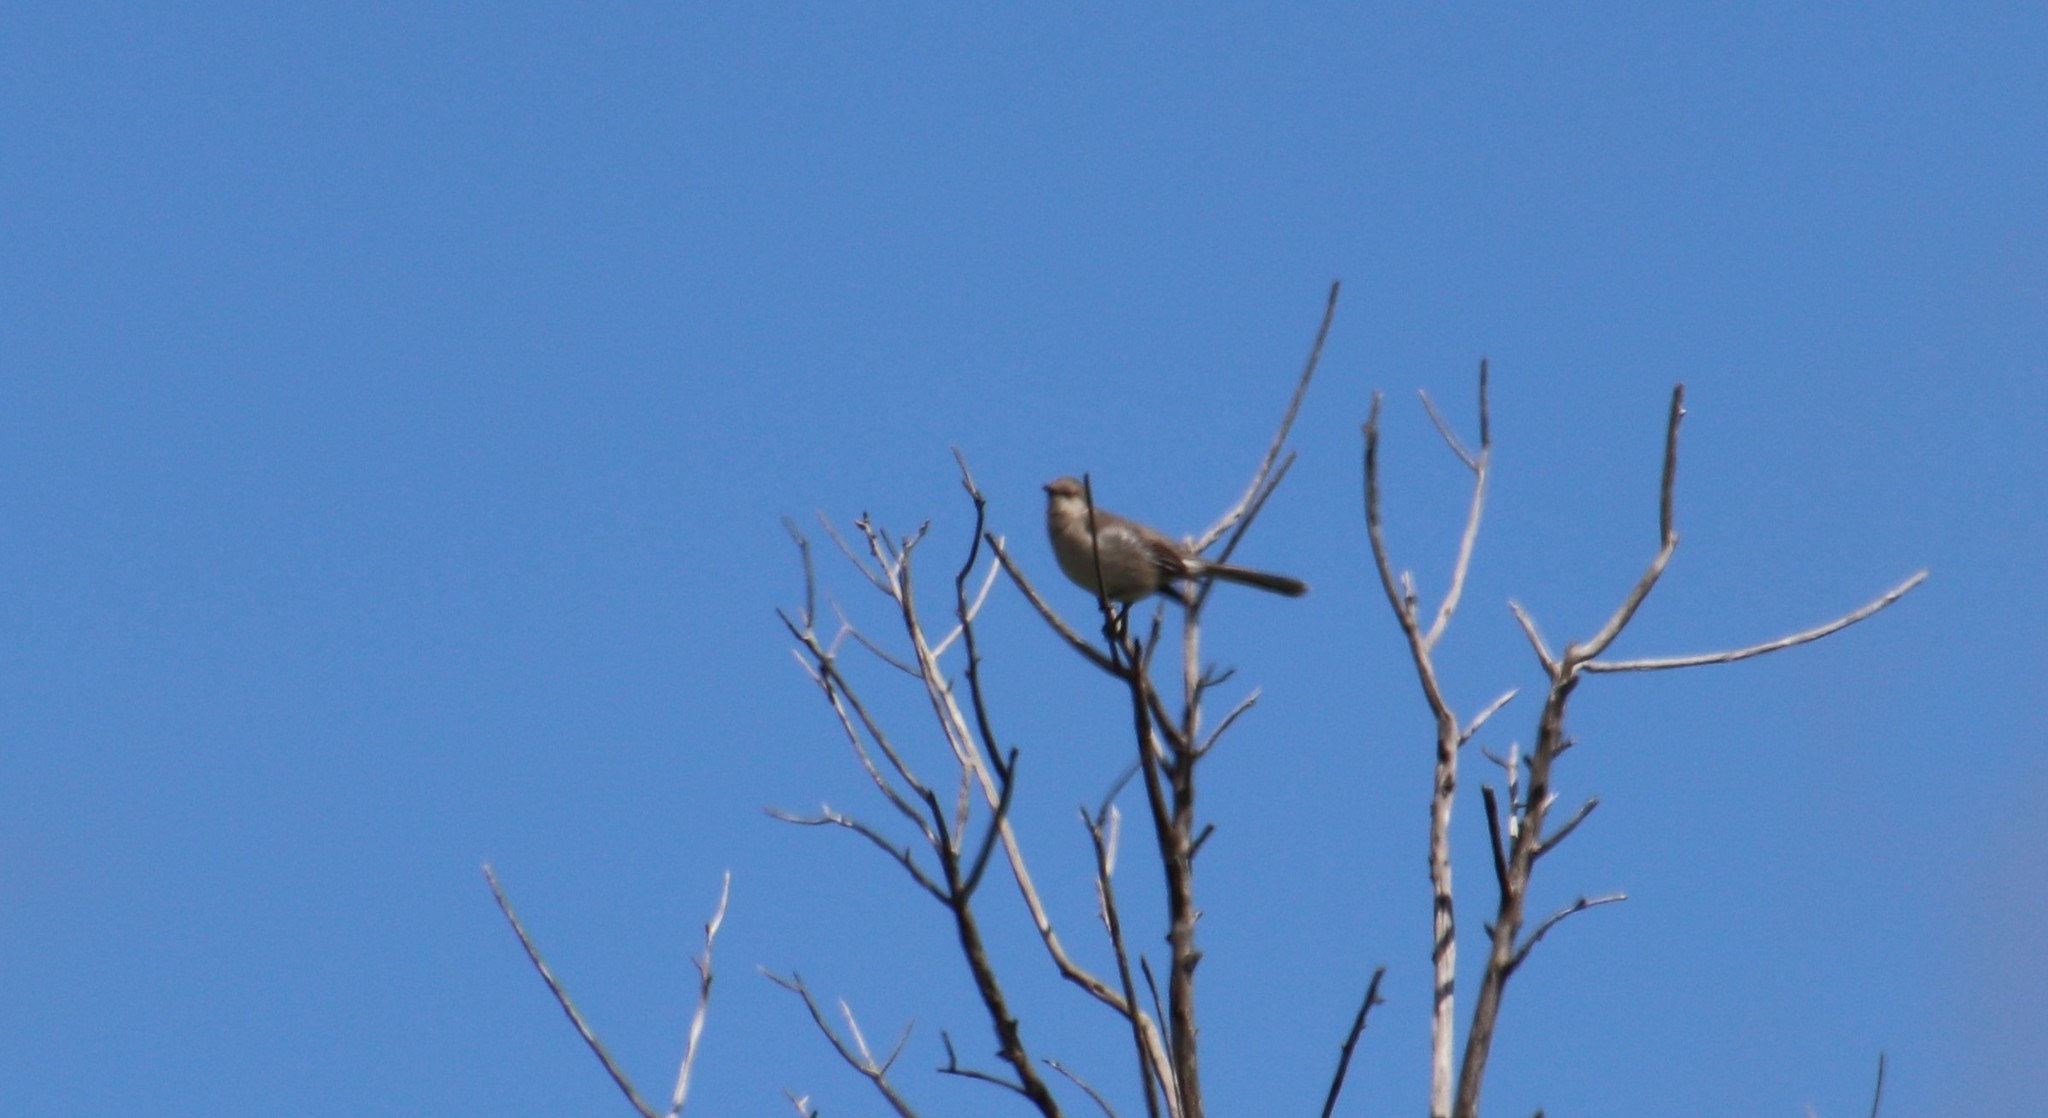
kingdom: Animalia
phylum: Chordata
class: Aves
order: Passeriformes
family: Mimidae
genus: Mimus
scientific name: Mimus polyglottos
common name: Northern mockingbird
